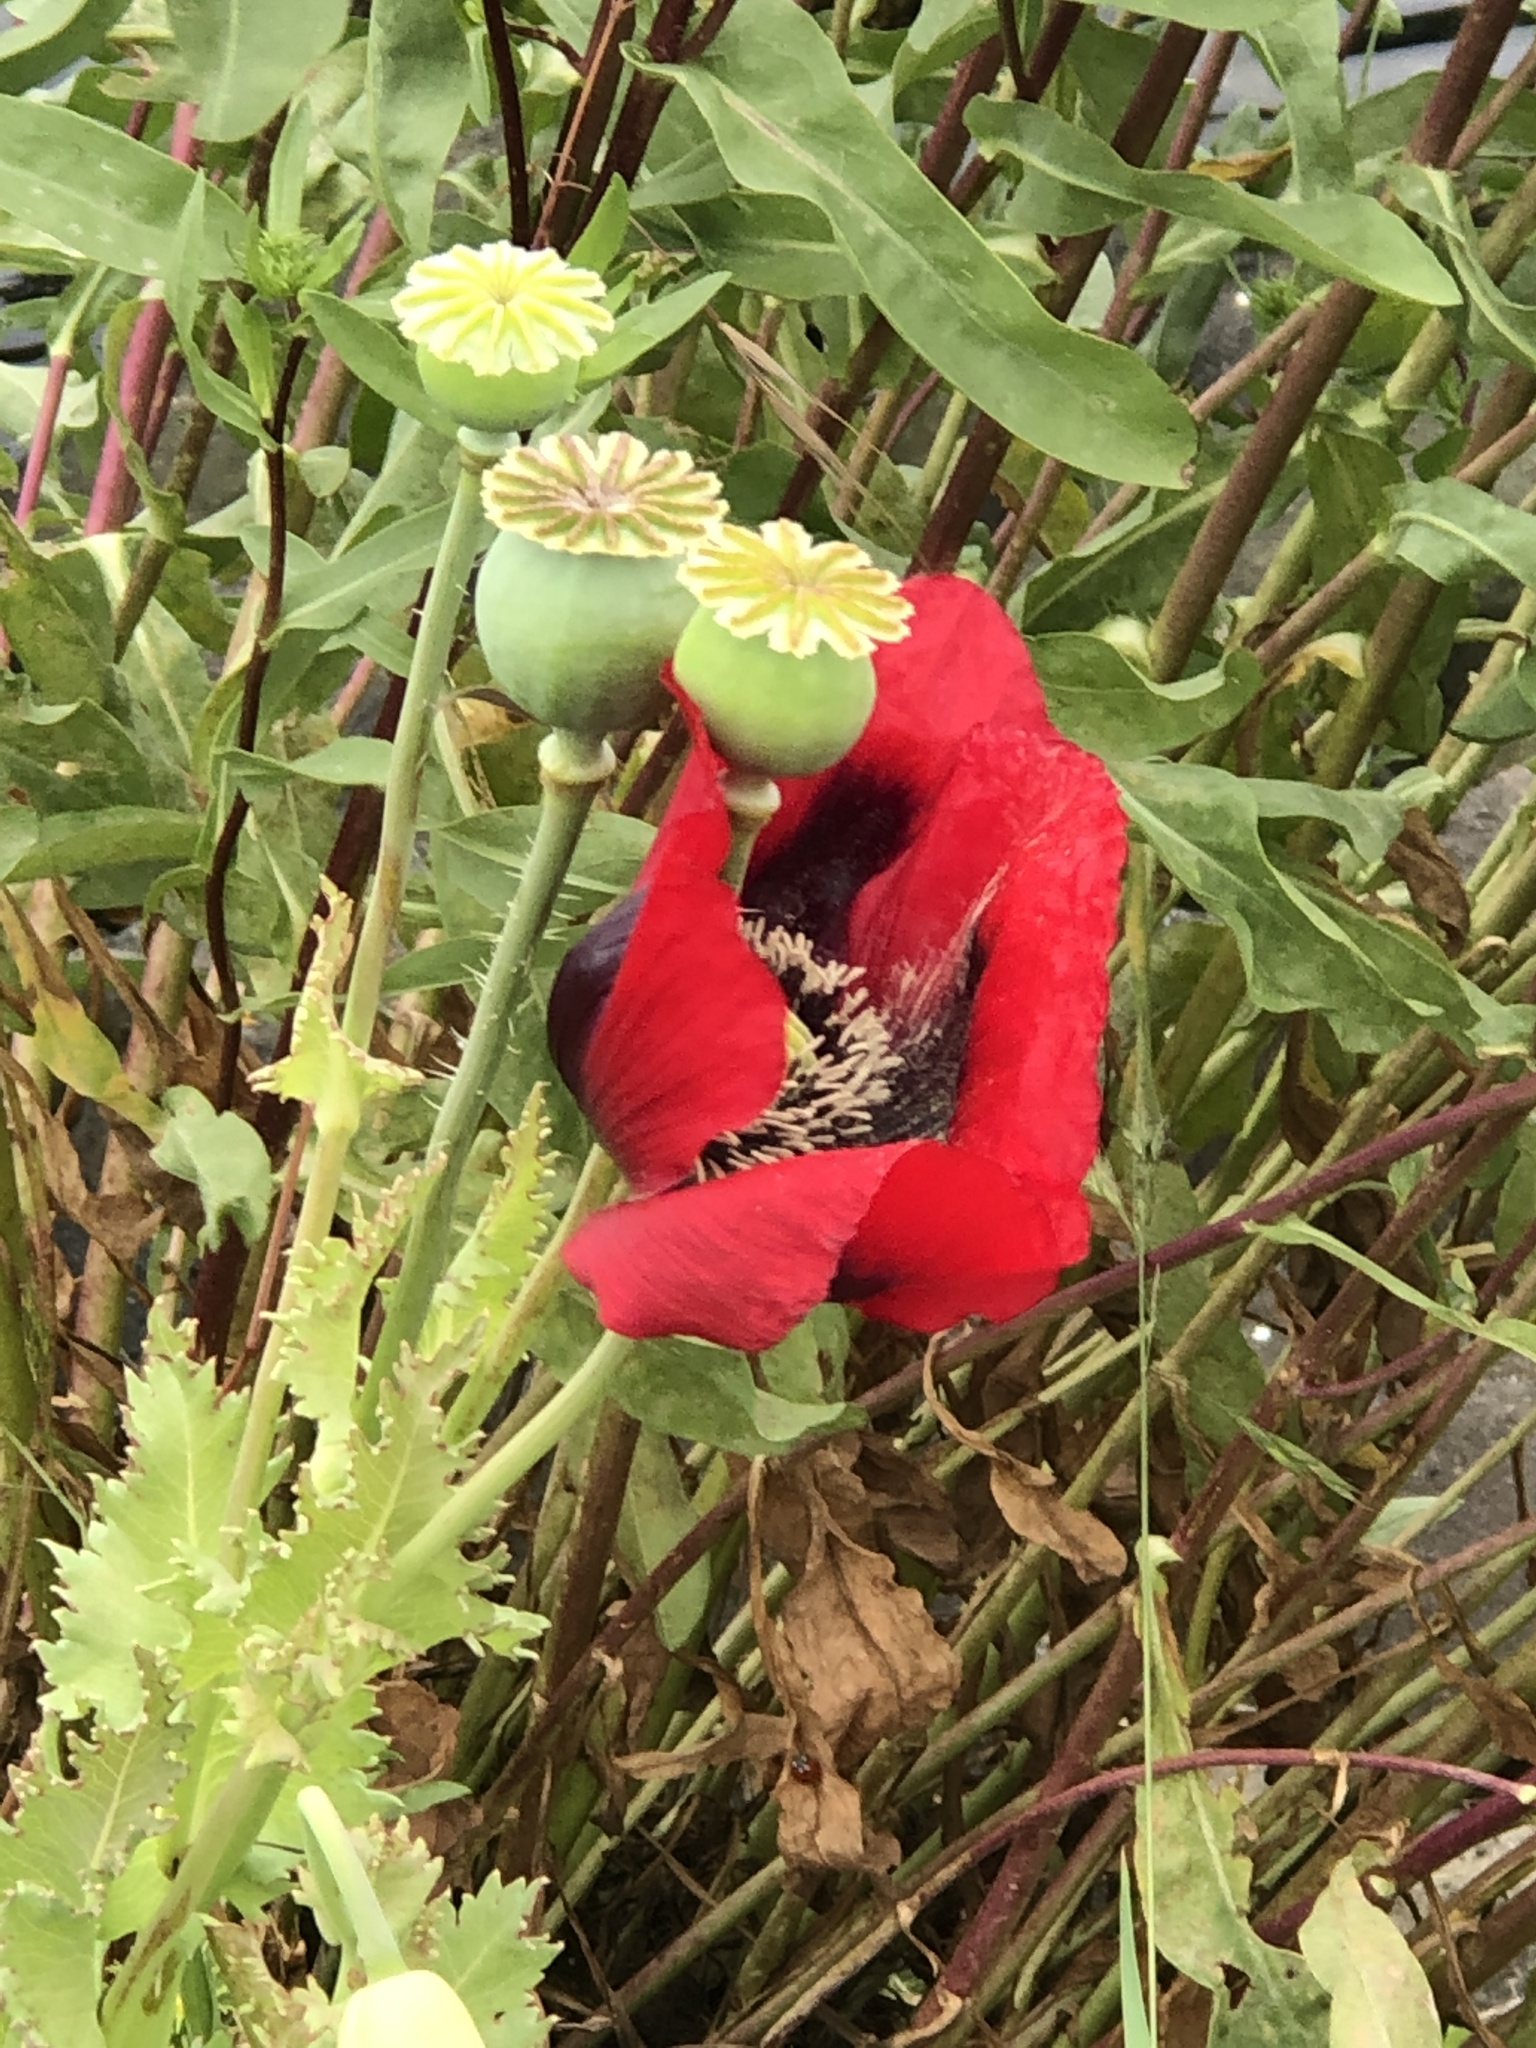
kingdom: Plantae
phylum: Tracheophyta
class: Magnoliopsida
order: Ranunculales
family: Papaveraceae
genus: Papaver
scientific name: Papaver somniferum
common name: Opium poppy
